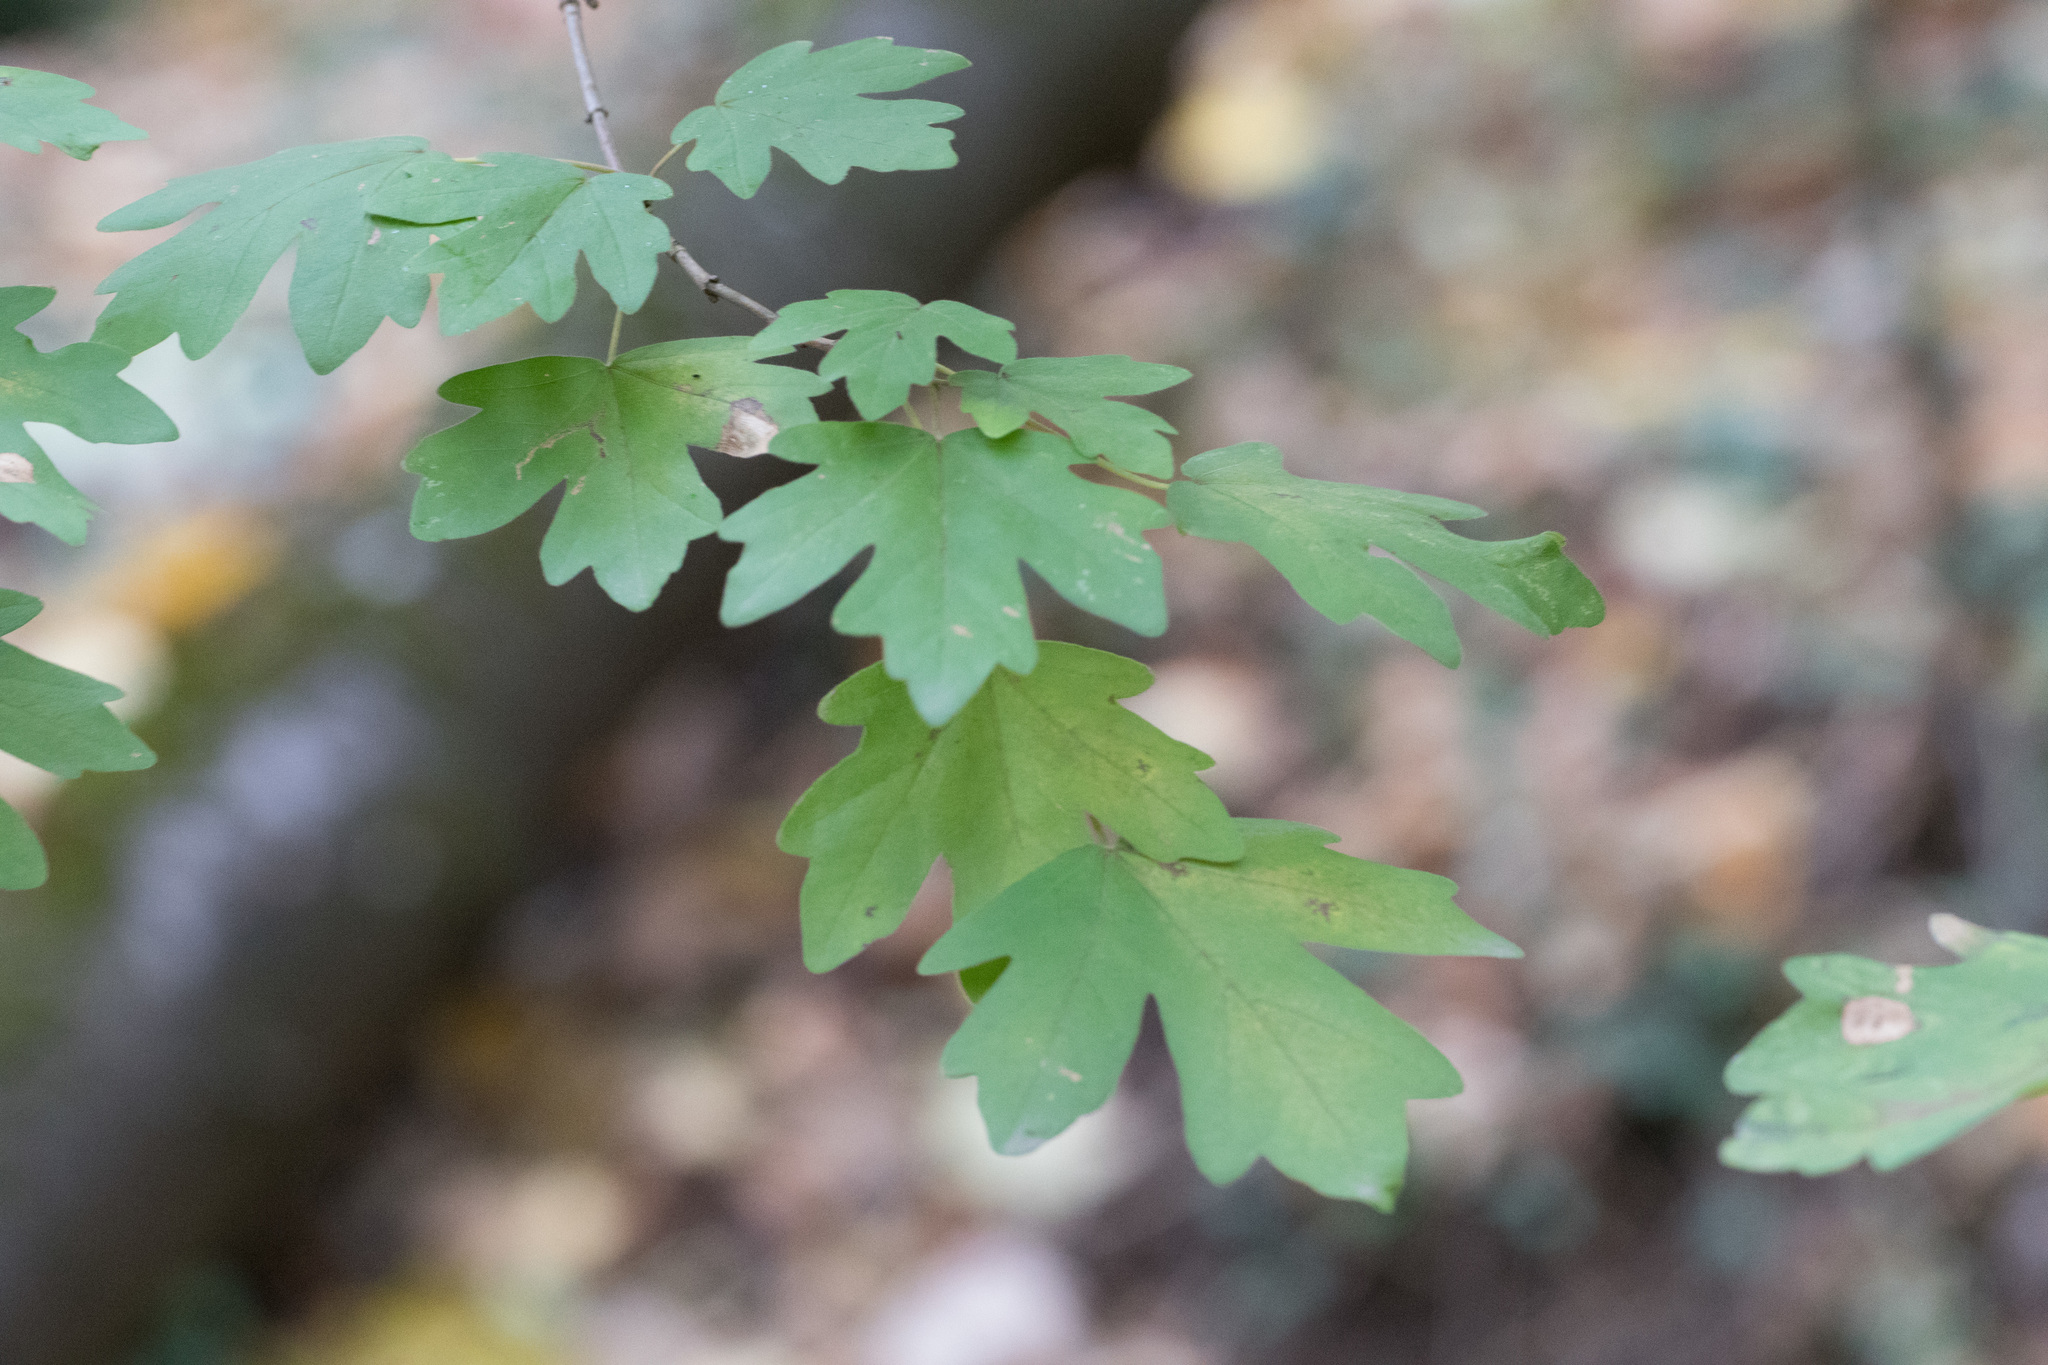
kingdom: Plantae
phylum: Tracheophyta
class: Magnoliopsida
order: Sapindales
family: Sapindaceae
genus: Acer
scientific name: Acer campestre
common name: Field maple
